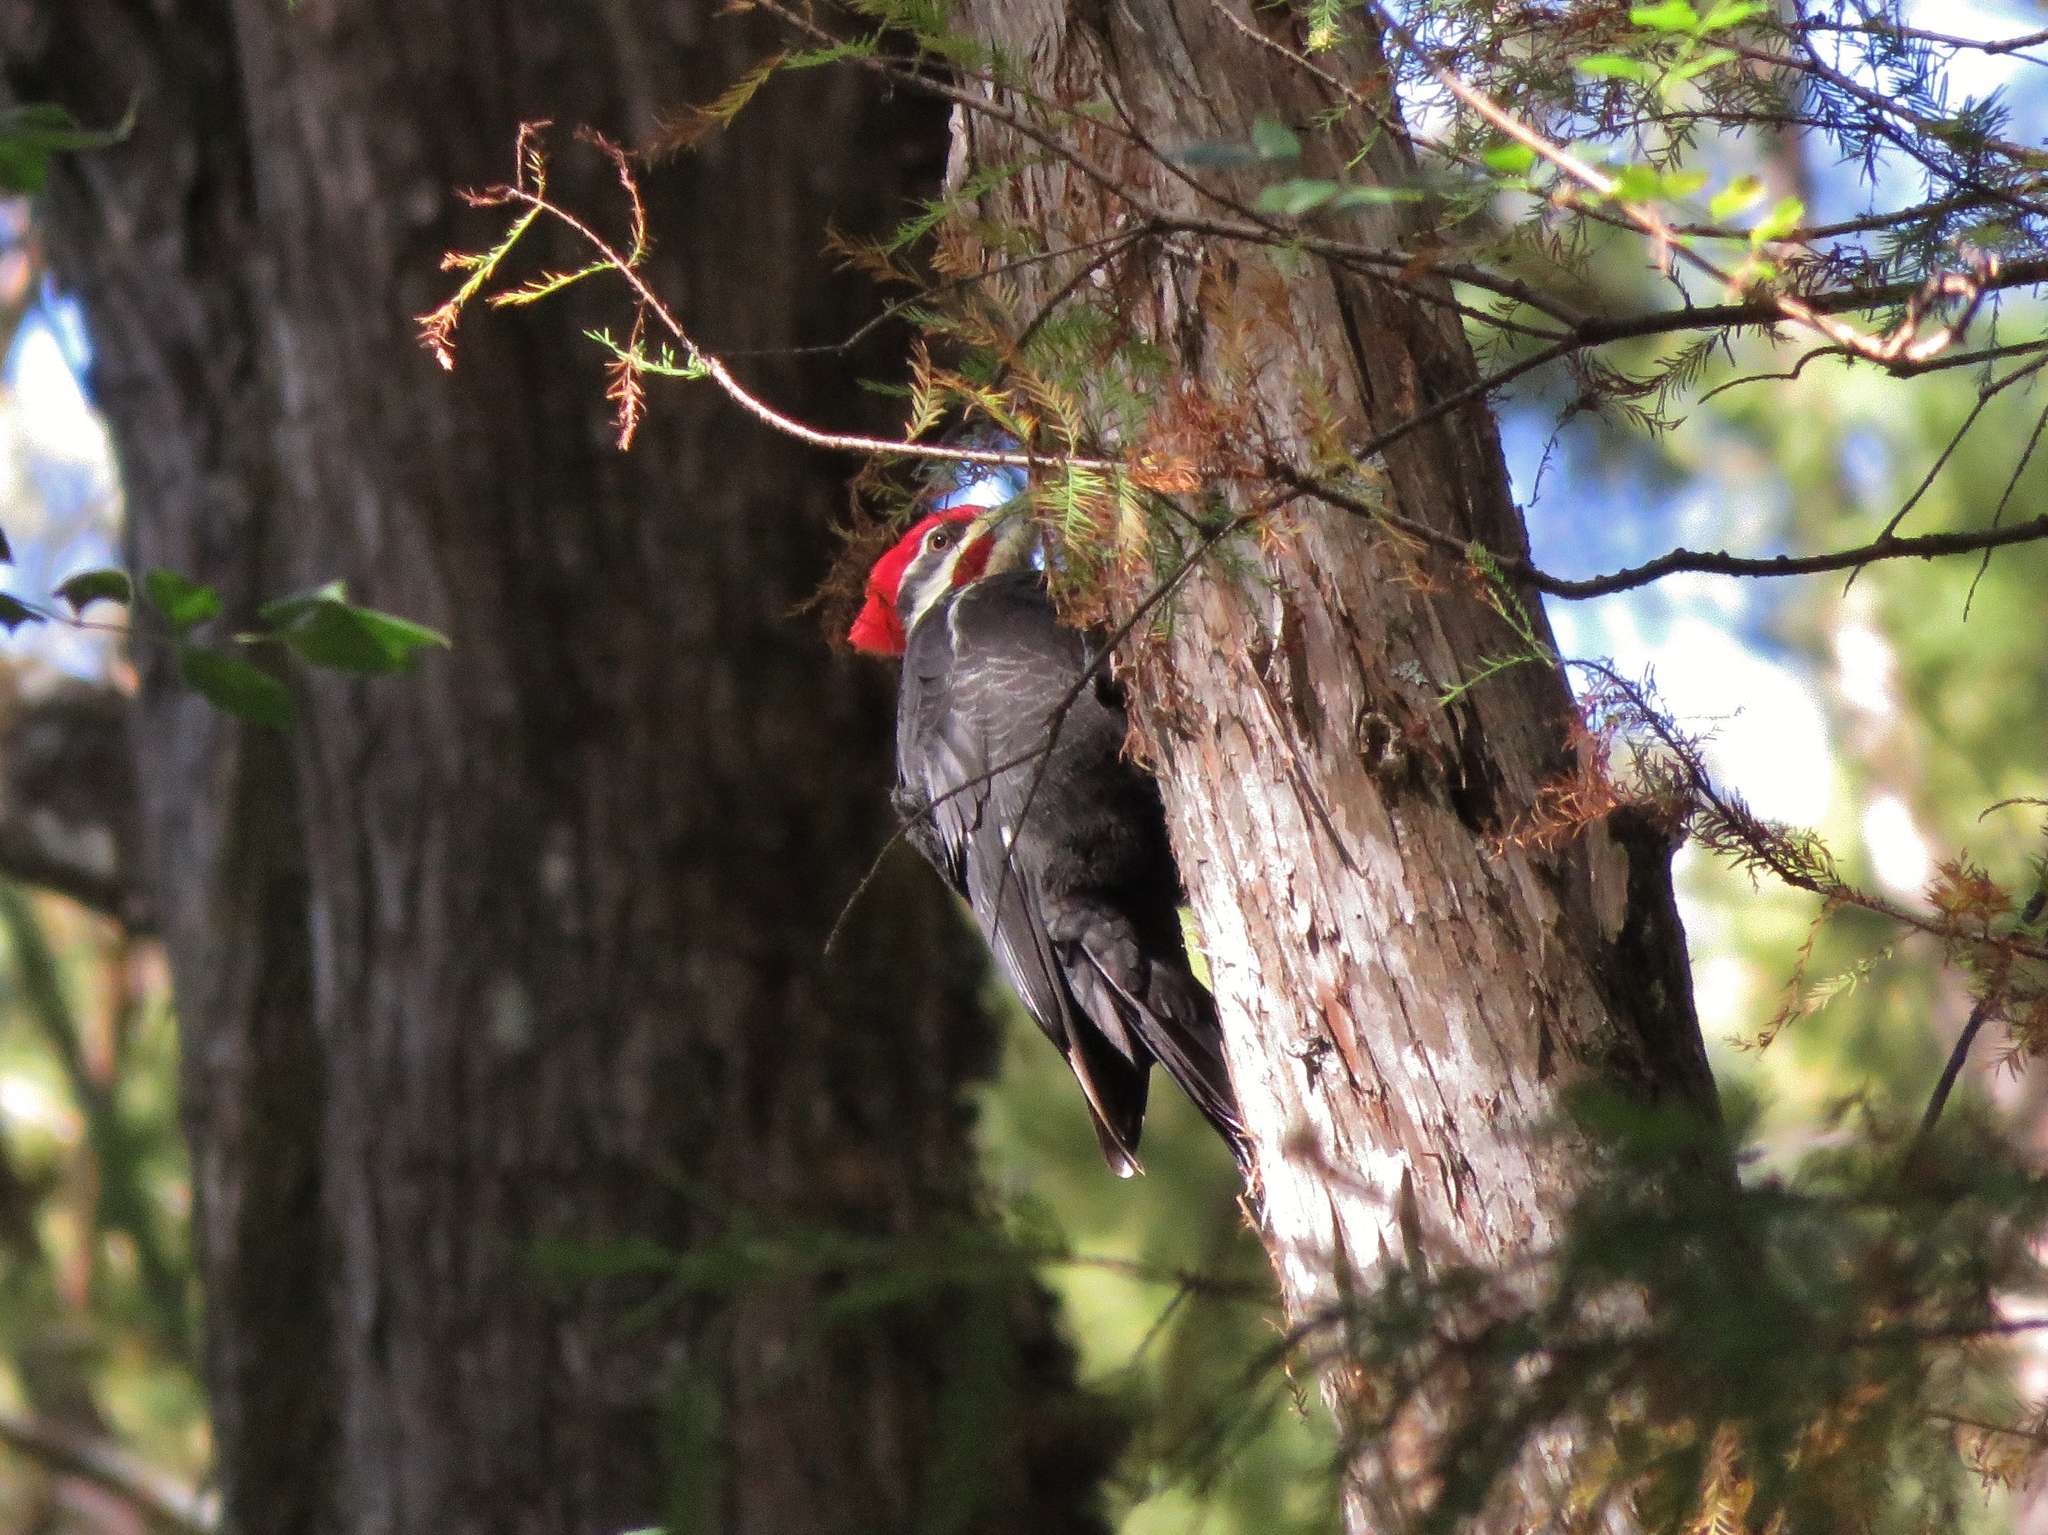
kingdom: Animalia
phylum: Chordata
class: Aves
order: Piciformes
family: Picidae
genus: Dryocopus
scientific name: Dryocopus pileatus
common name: Pileated woodpecker
